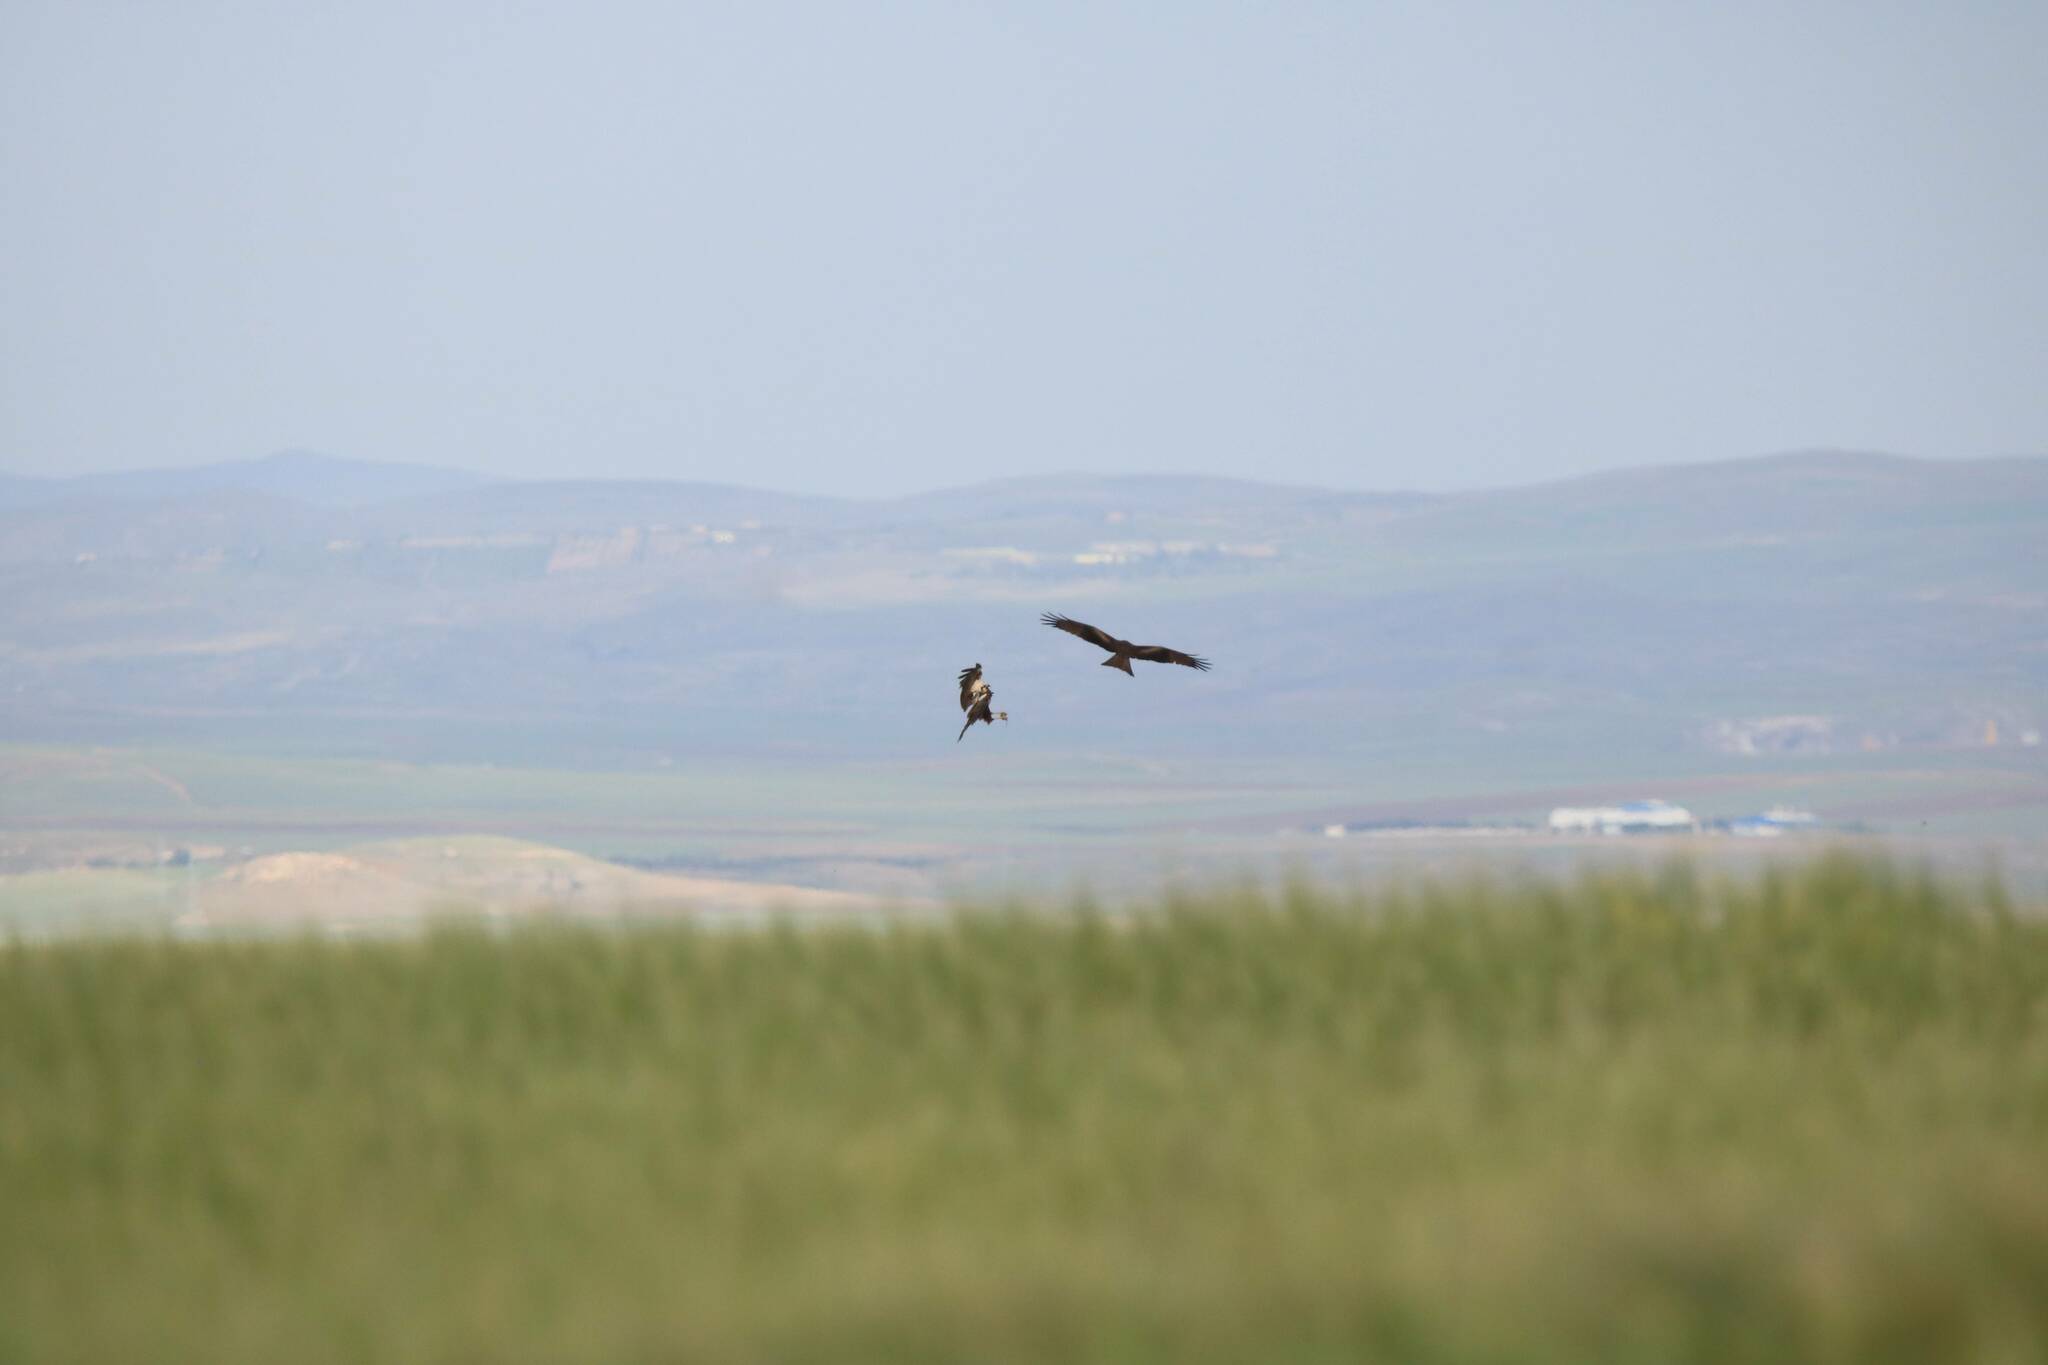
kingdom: Animalia
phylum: Chordata
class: Aves
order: Accipitriformes
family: Accipitridae
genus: Circus
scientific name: Circus aeruginosus
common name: Western marsh harrier
